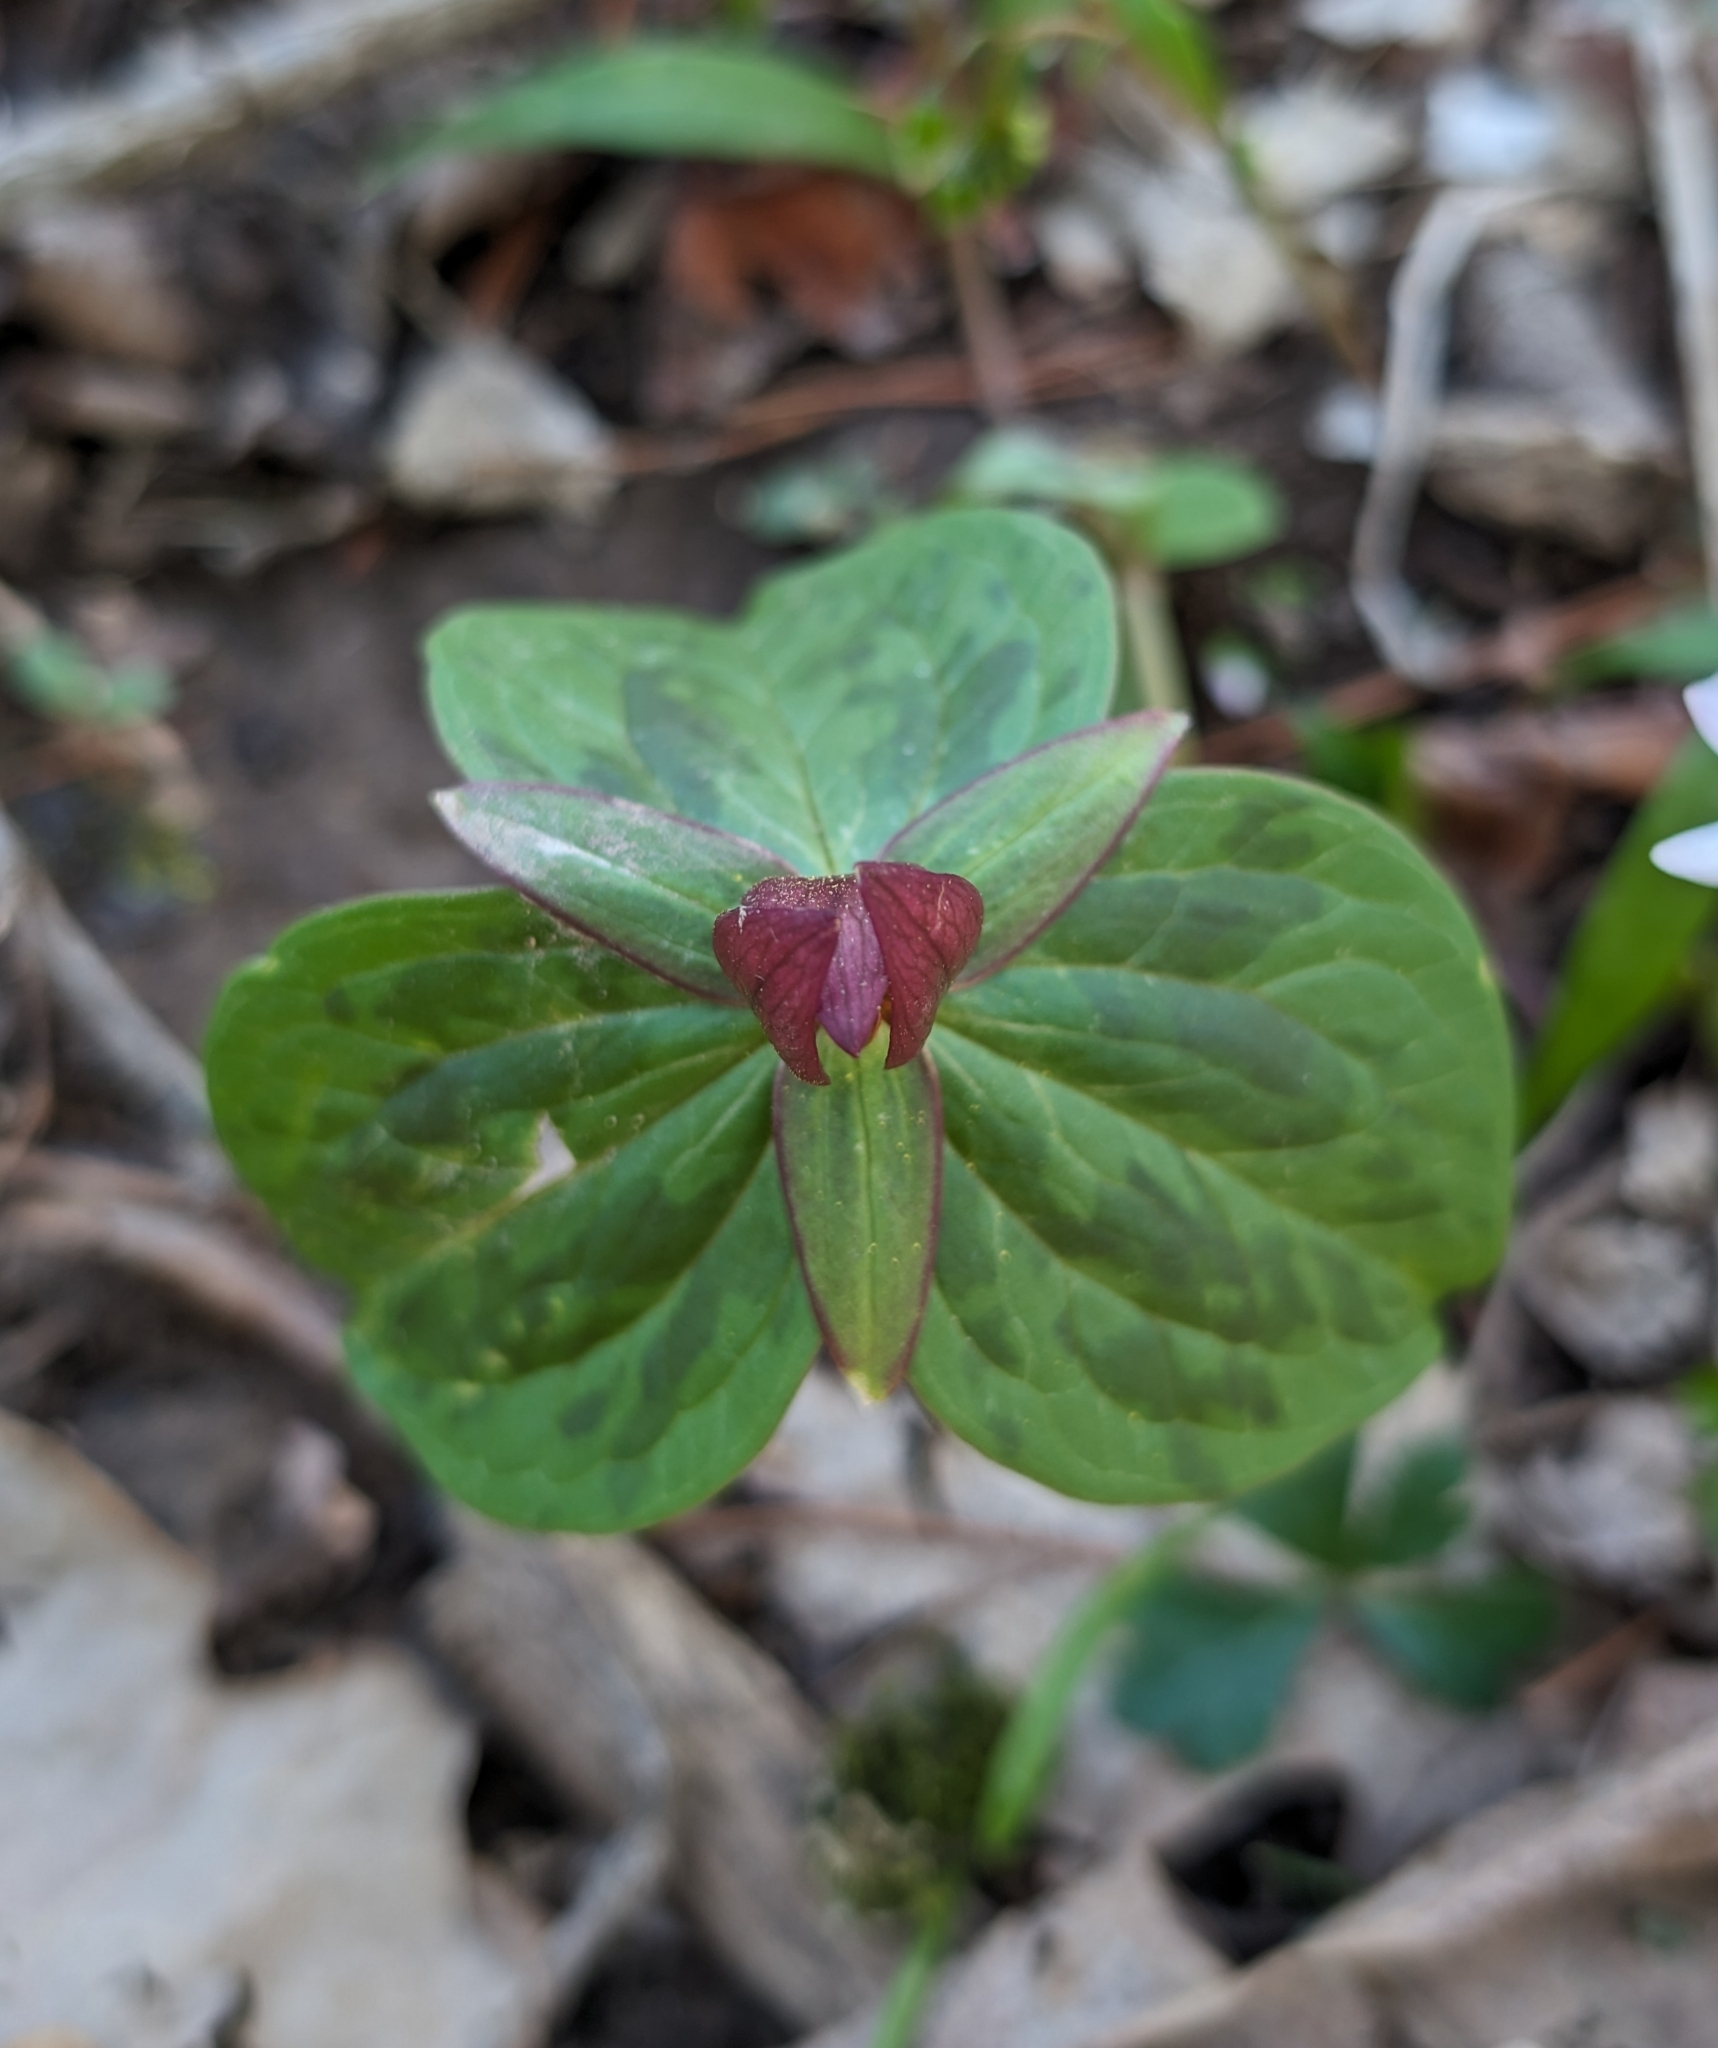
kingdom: Plantae
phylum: Tracheophyta
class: Liliopsida
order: Liliales
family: Melanthiaceae
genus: Trillium
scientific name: Trillium sessile
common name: Sessile trillium
